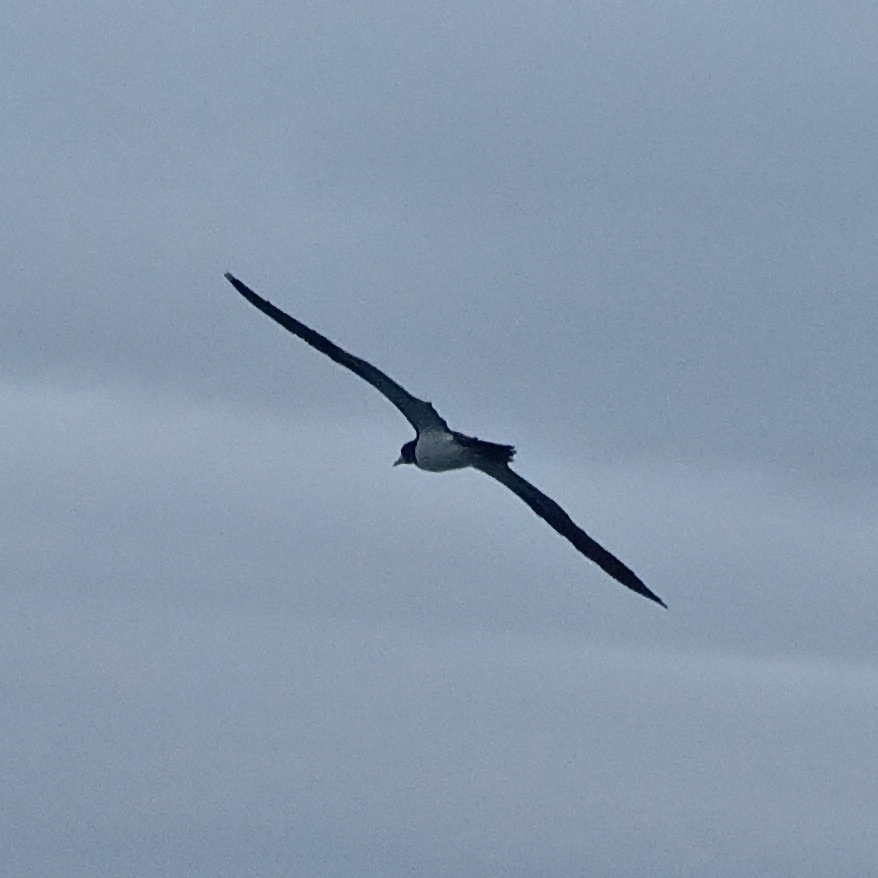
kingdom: Animalia
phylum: Chordata
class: Aves
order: Suliformes
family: Sulidae
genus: Sula
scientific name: Sula leucogaster
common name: Brown booby
